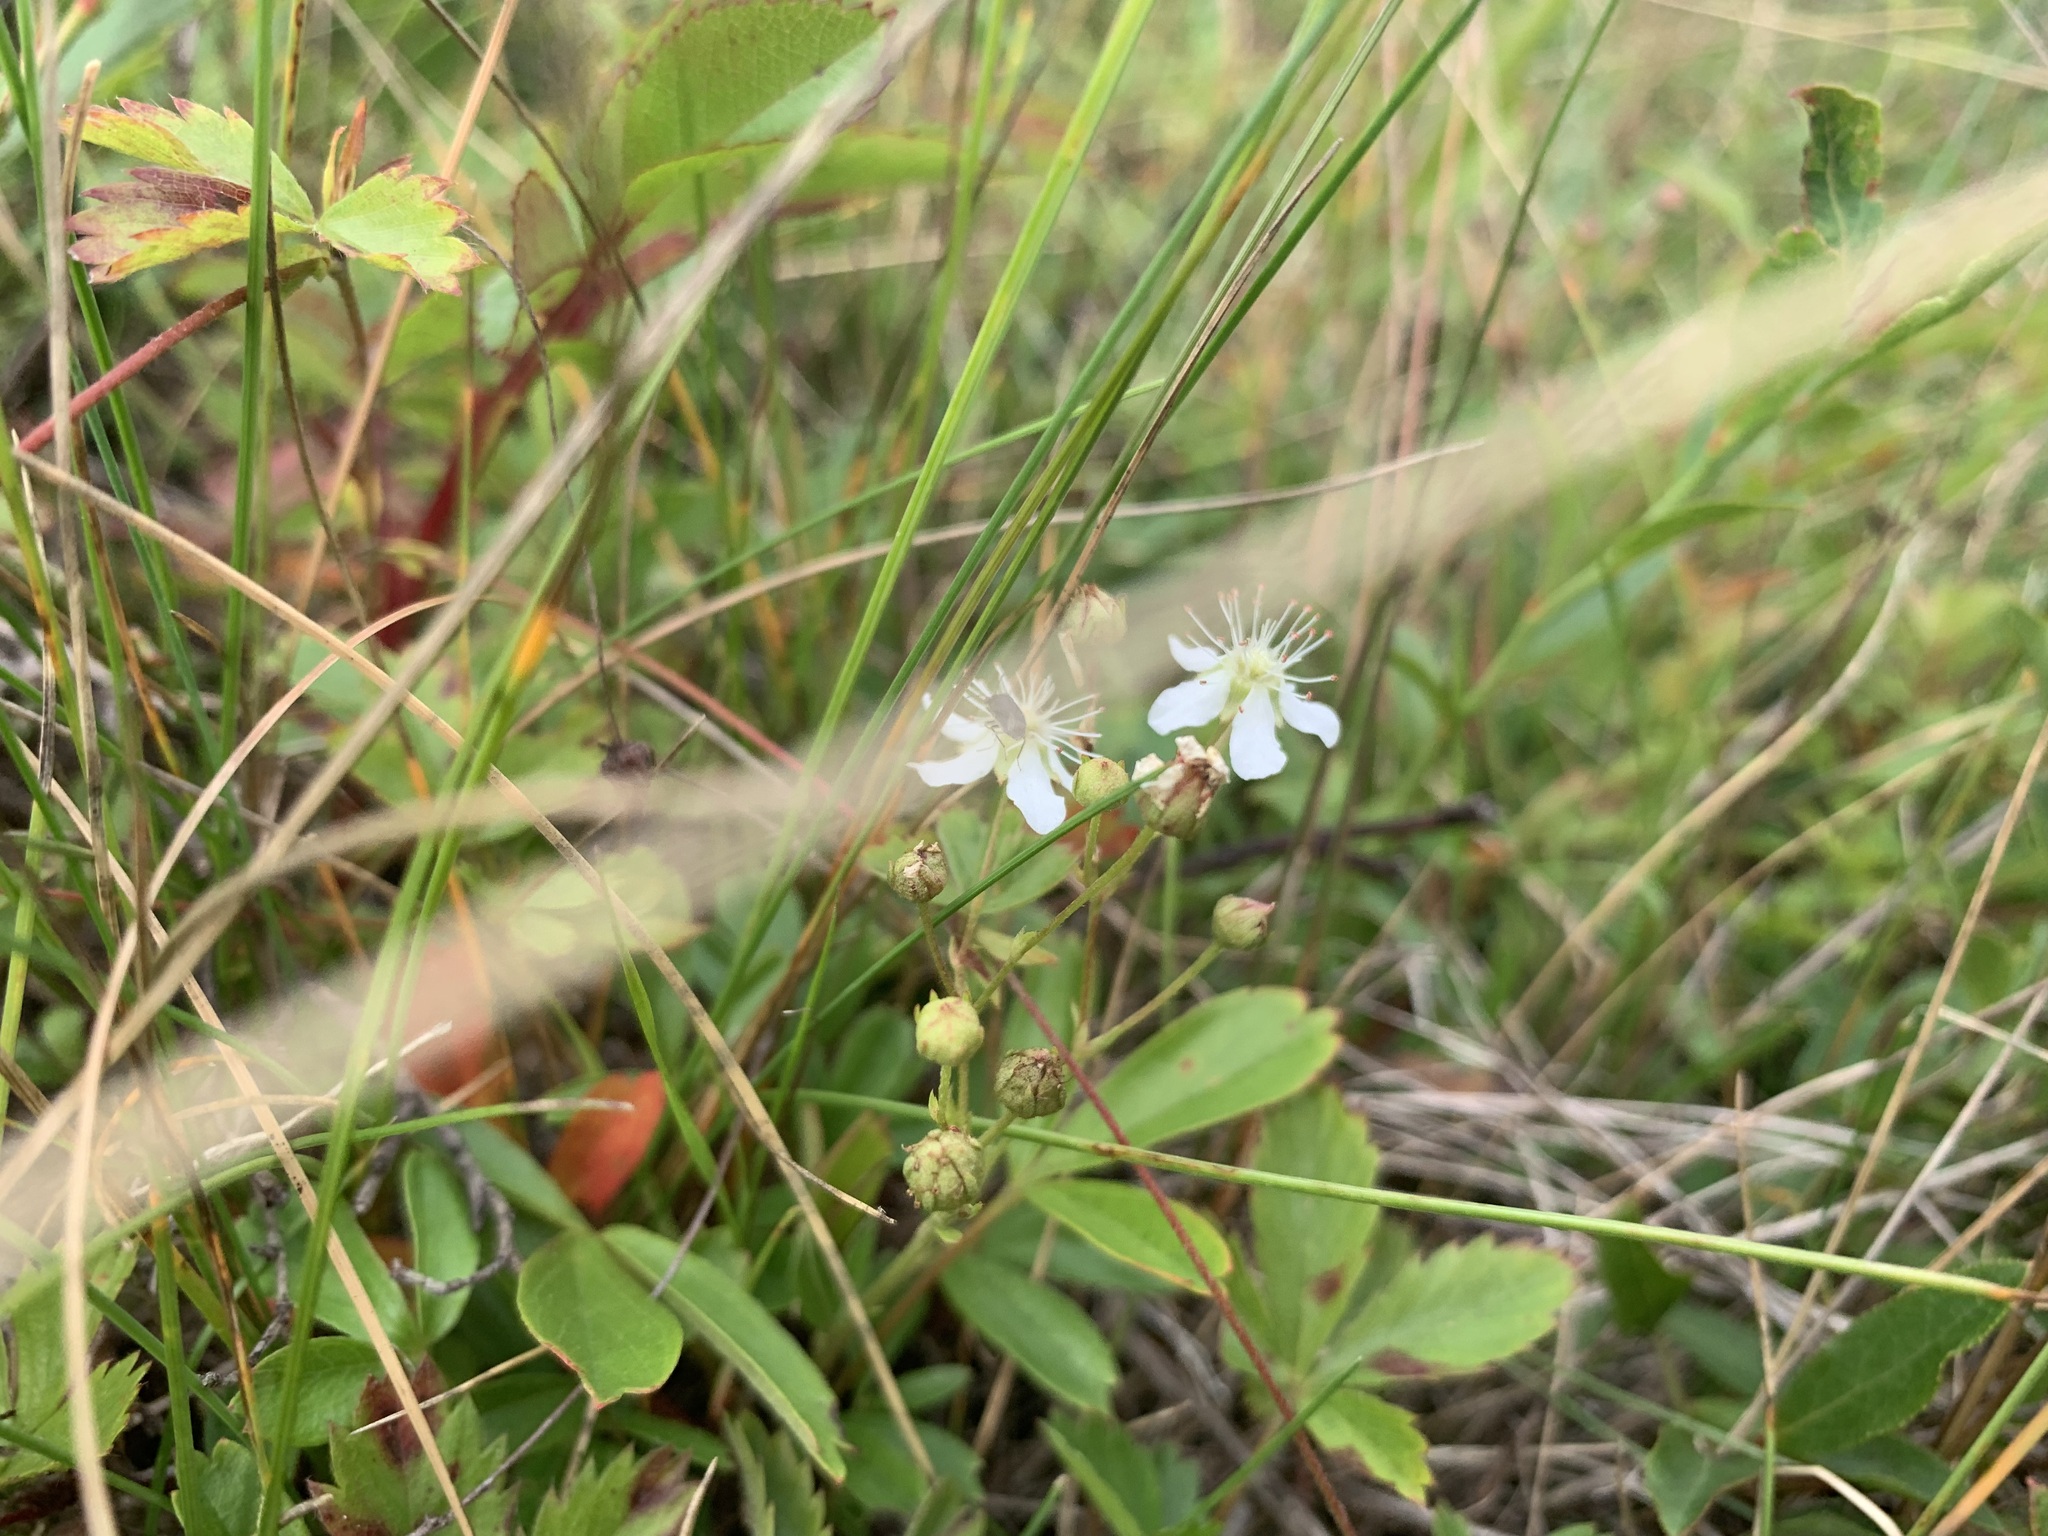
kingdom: Plantae
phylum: Tracheophyta
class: Magnoliopsida
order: Rosales
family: Rosaceae
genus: Sibbaldia
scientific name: Sibbaldia tridentata
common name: Three-toothed cinquefoil
